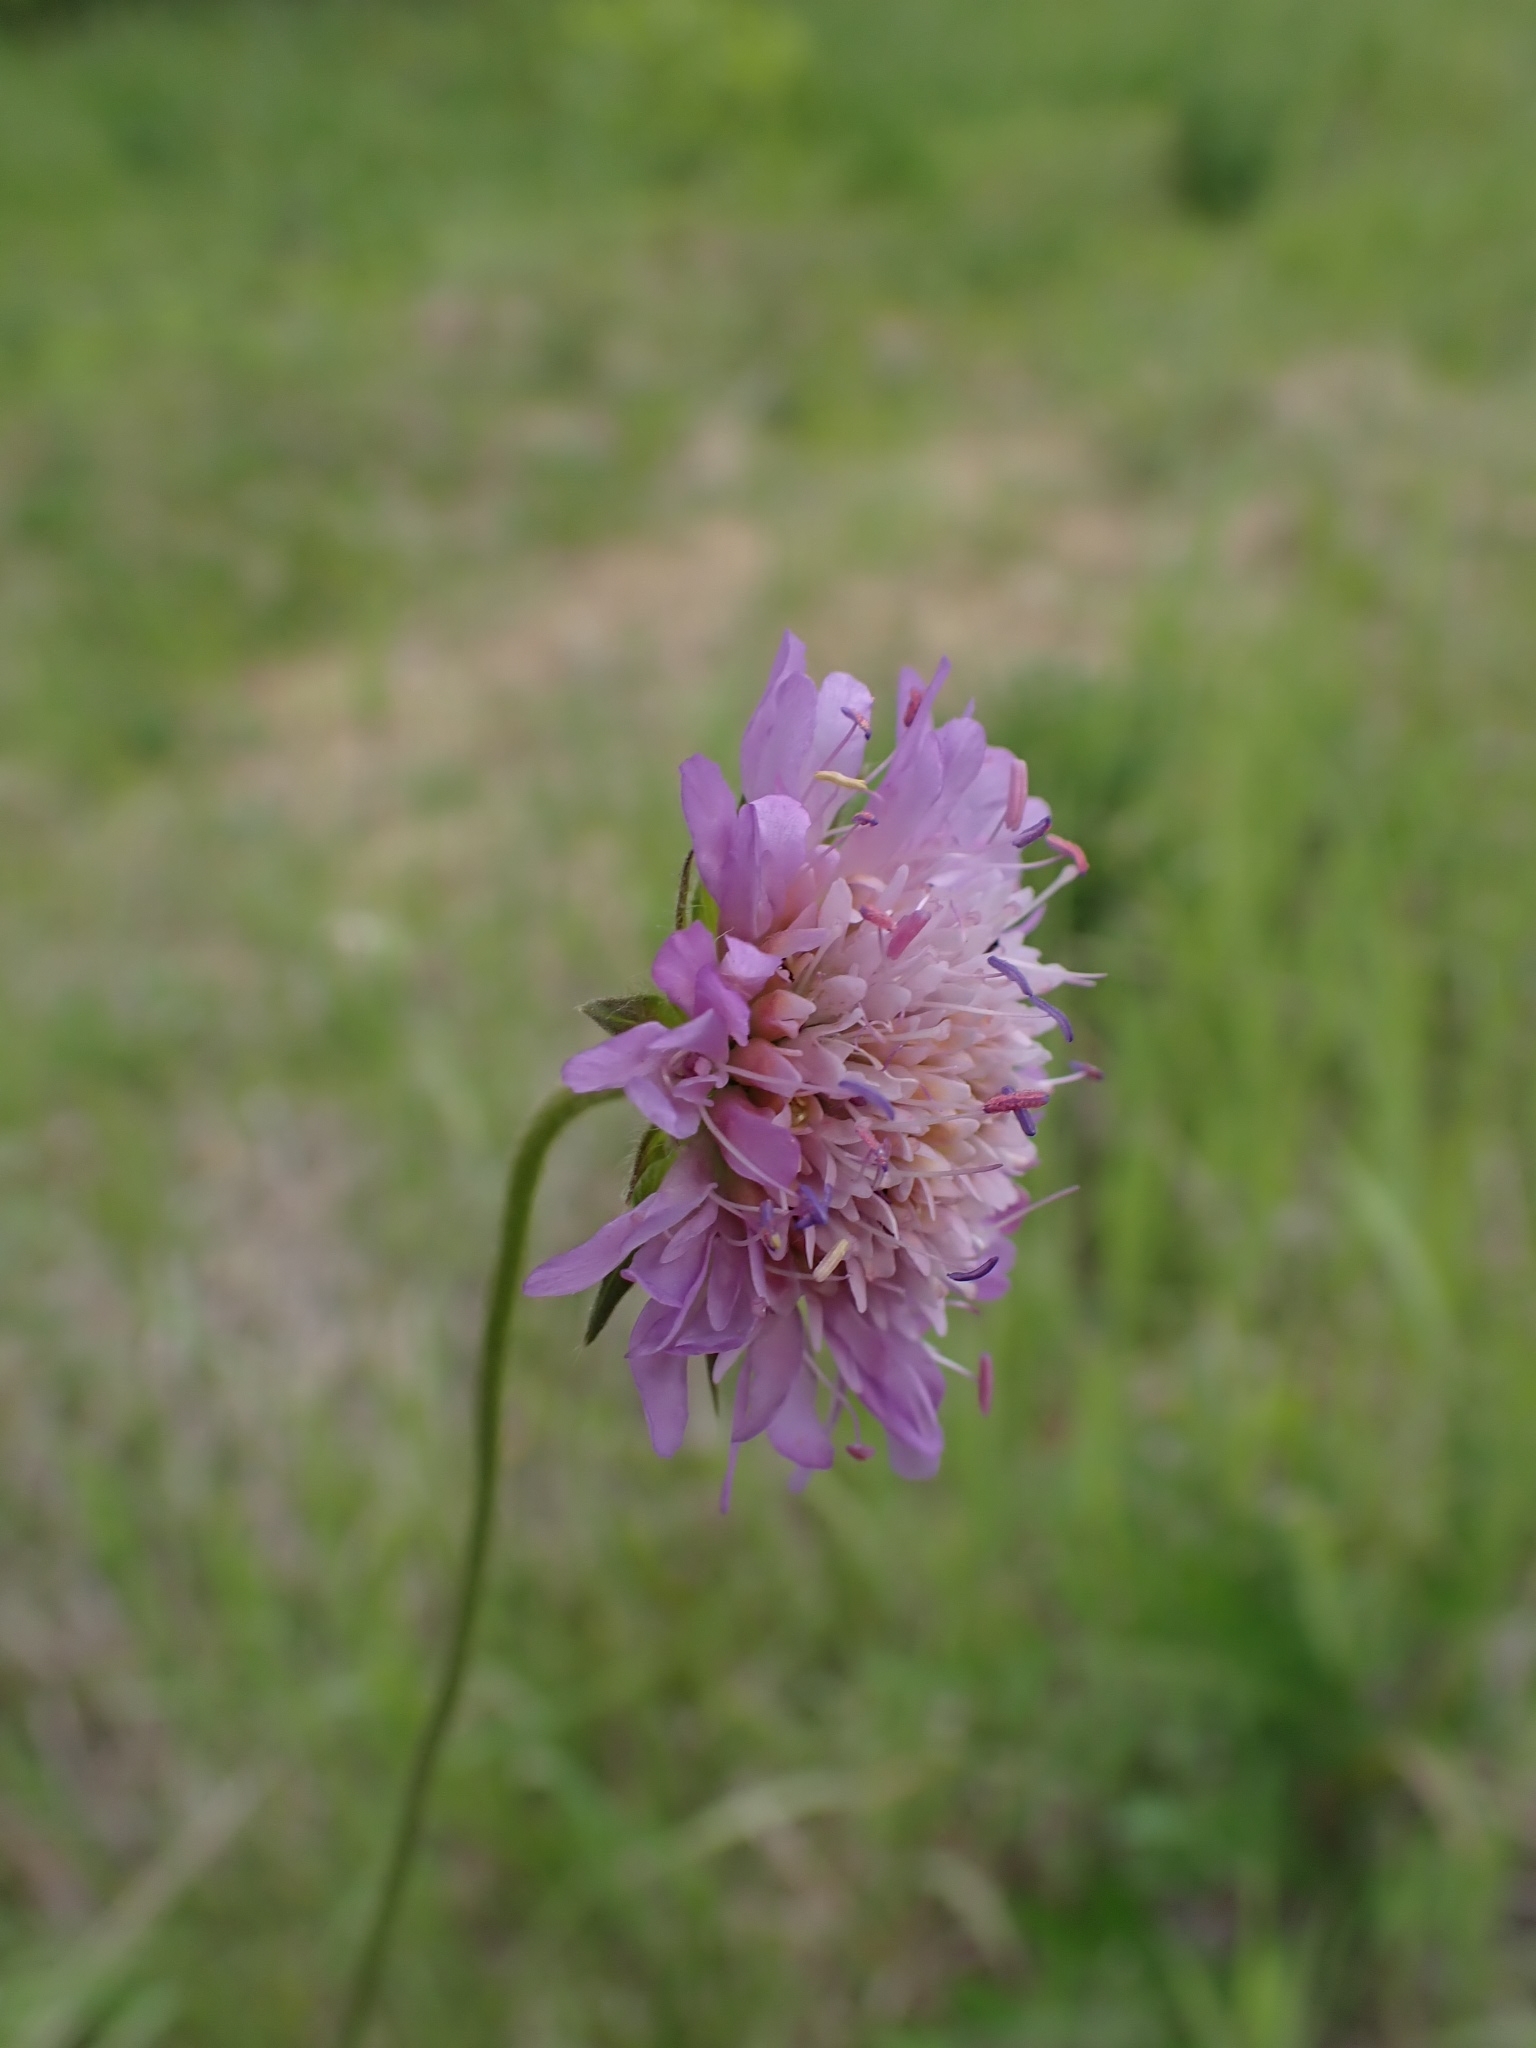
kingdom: Plantae
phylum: Tracheophyta
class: Magnoliopsida
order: Dipsacales
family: Caprifoliaceae
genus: Knautia
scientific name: Knautia arvensis
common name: Field scabiosa
